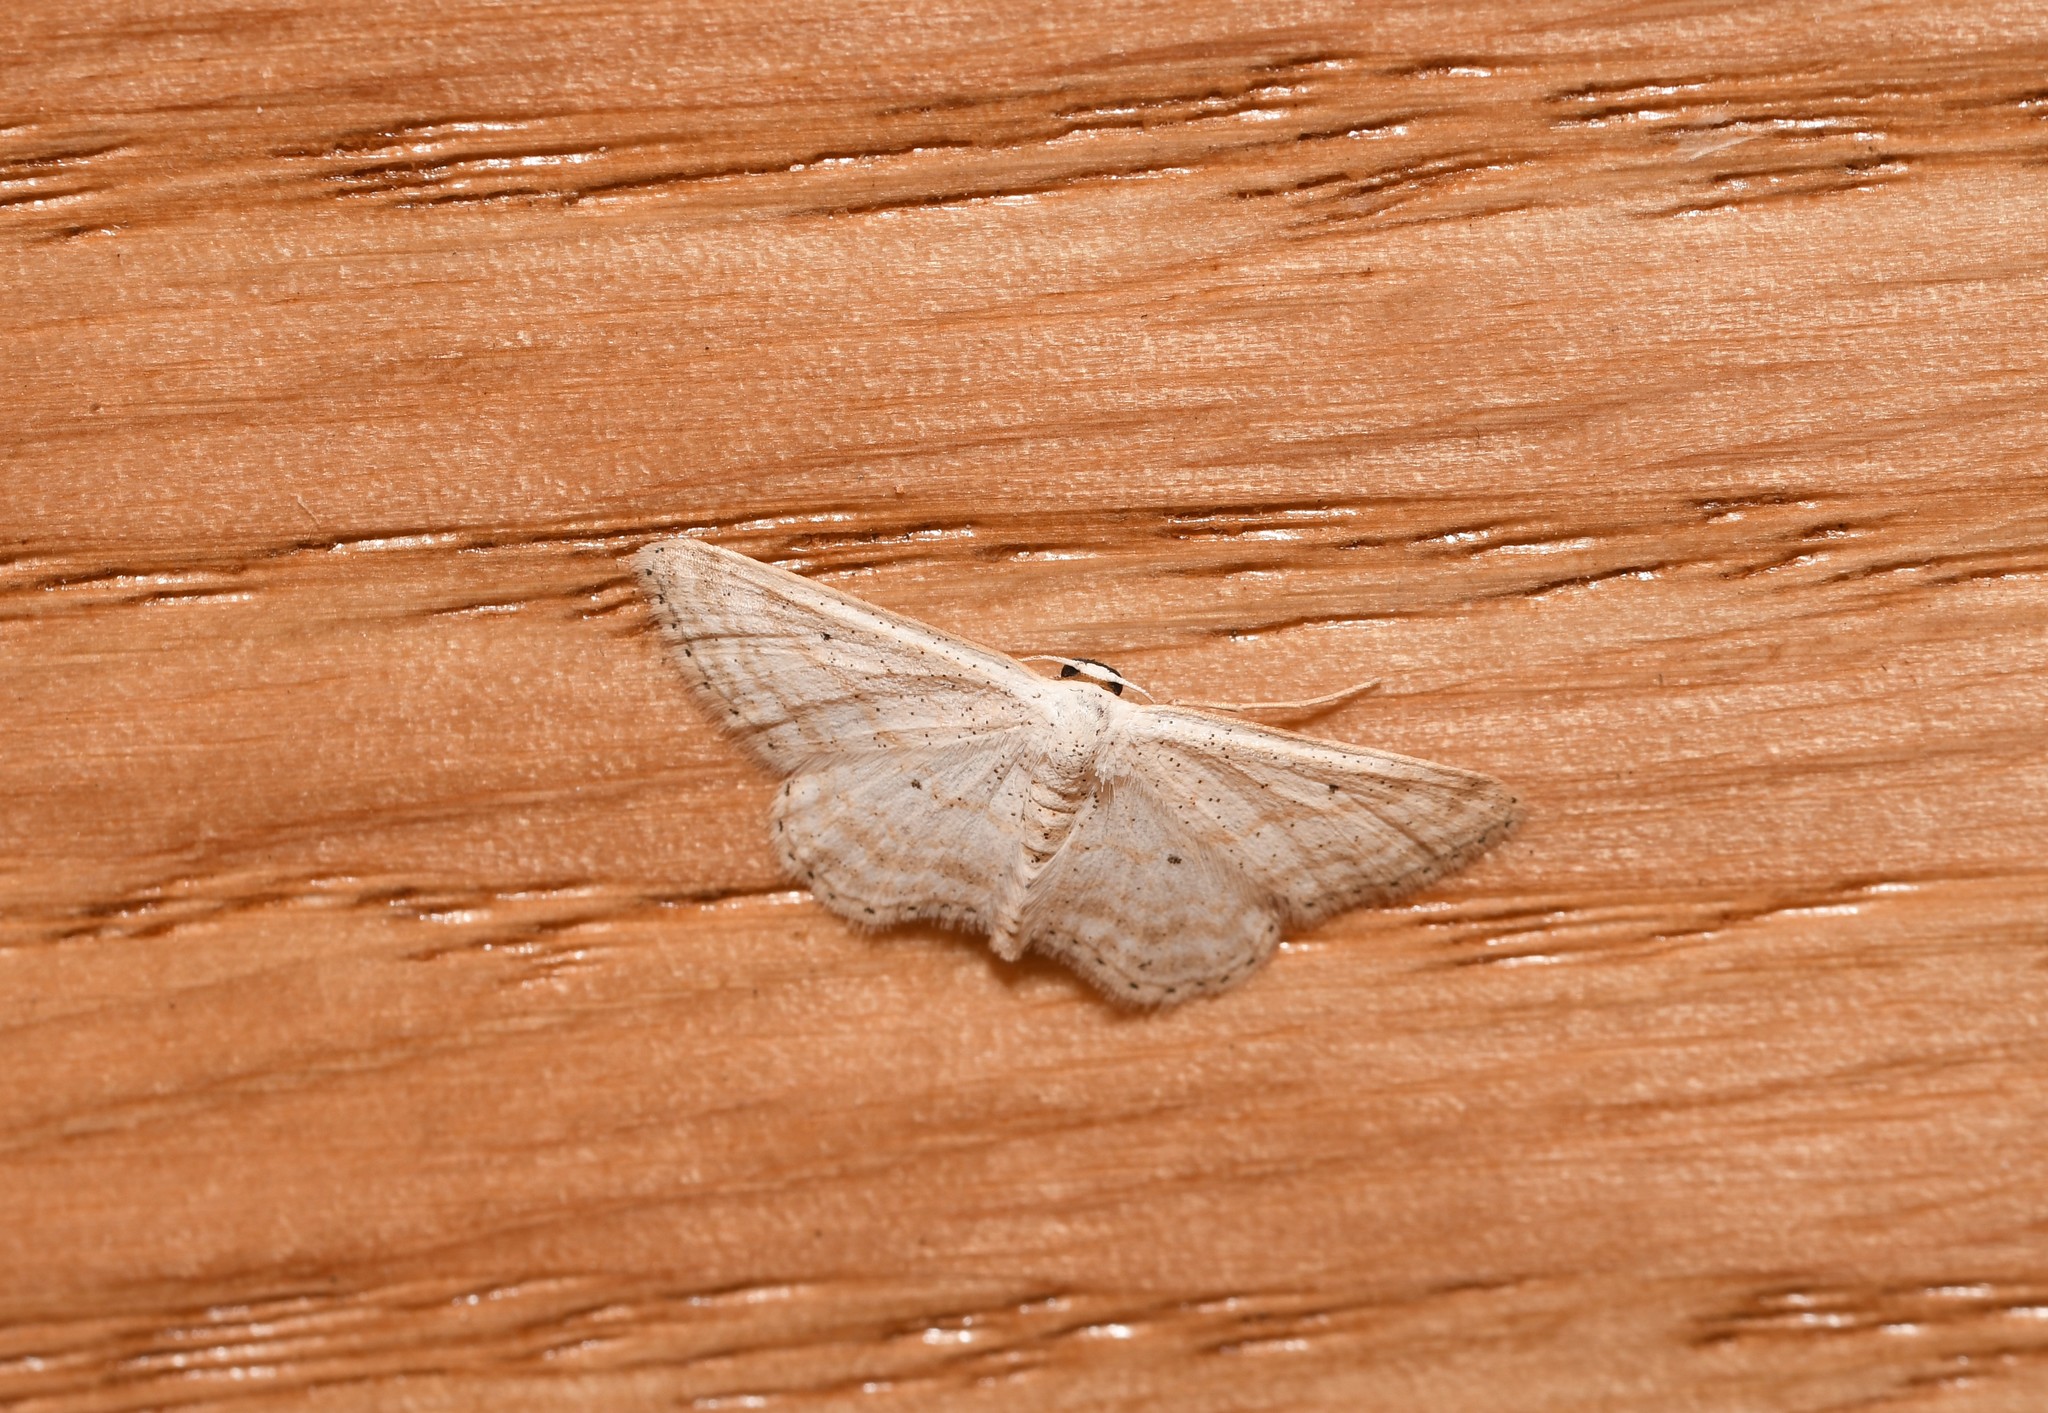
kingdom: Animalia
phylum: Arthropoda
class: Insecta
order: Lepidoptera
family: Geometridae
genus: Idaea
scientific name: Idaea elongaria
